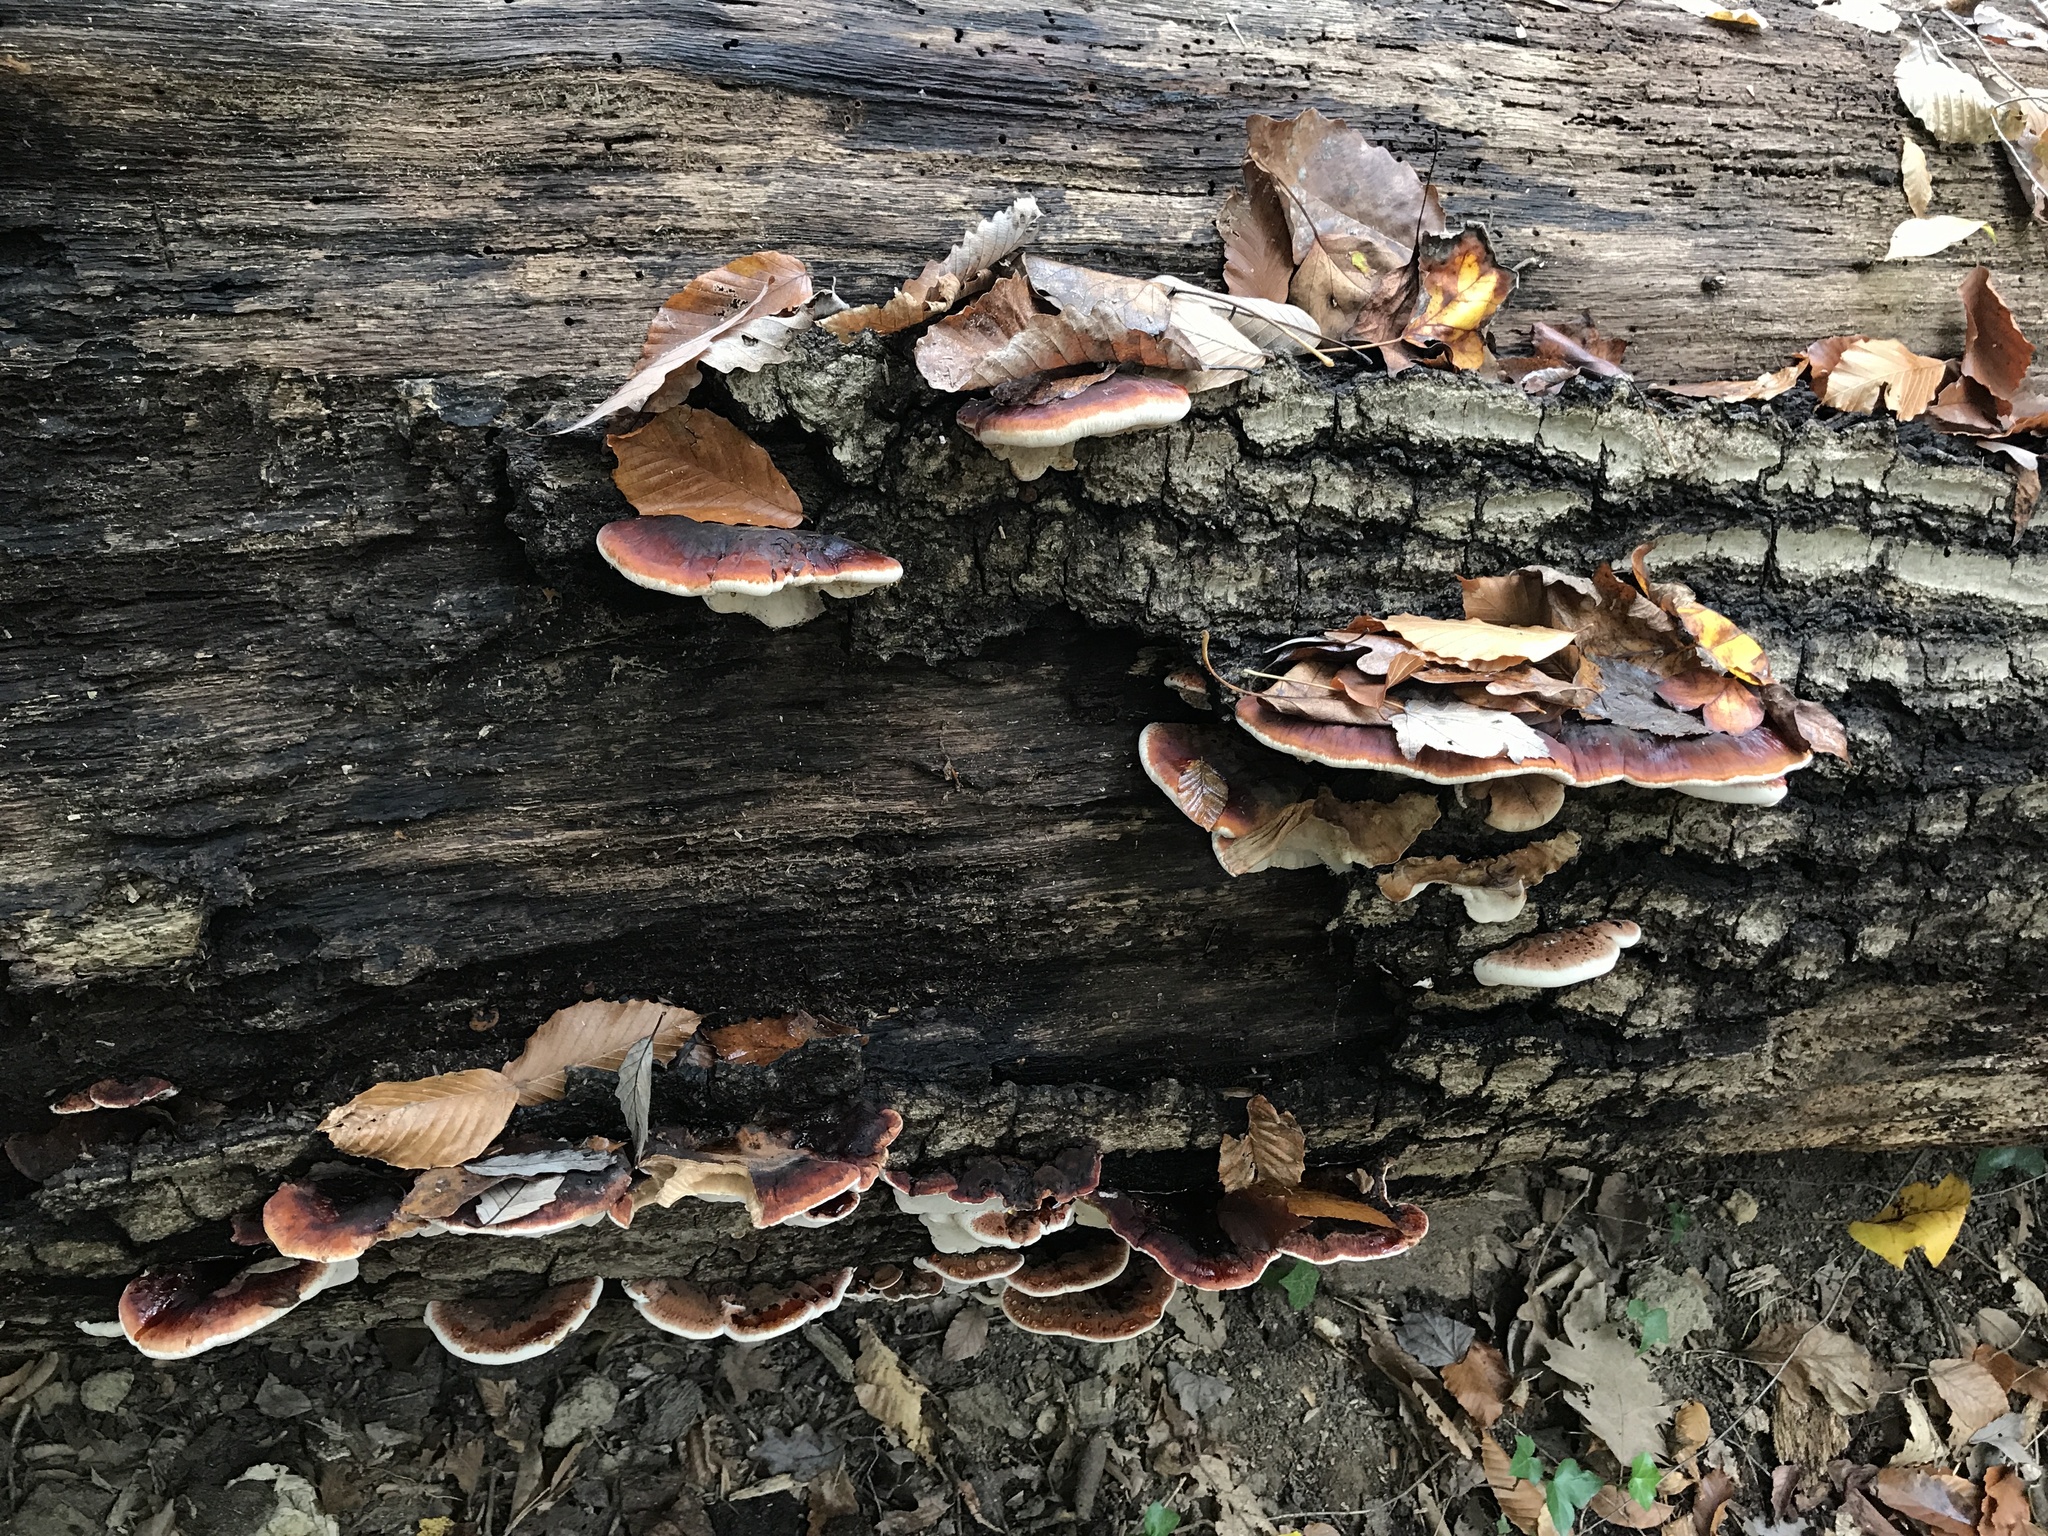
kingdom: Fungi
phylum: Basidiomycota
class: Agaricomycetes
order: Polyporales
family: Ischnodermataceae
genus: Ischnoderma
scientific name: Ischnoderma resinosum
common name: Resinous polypore
